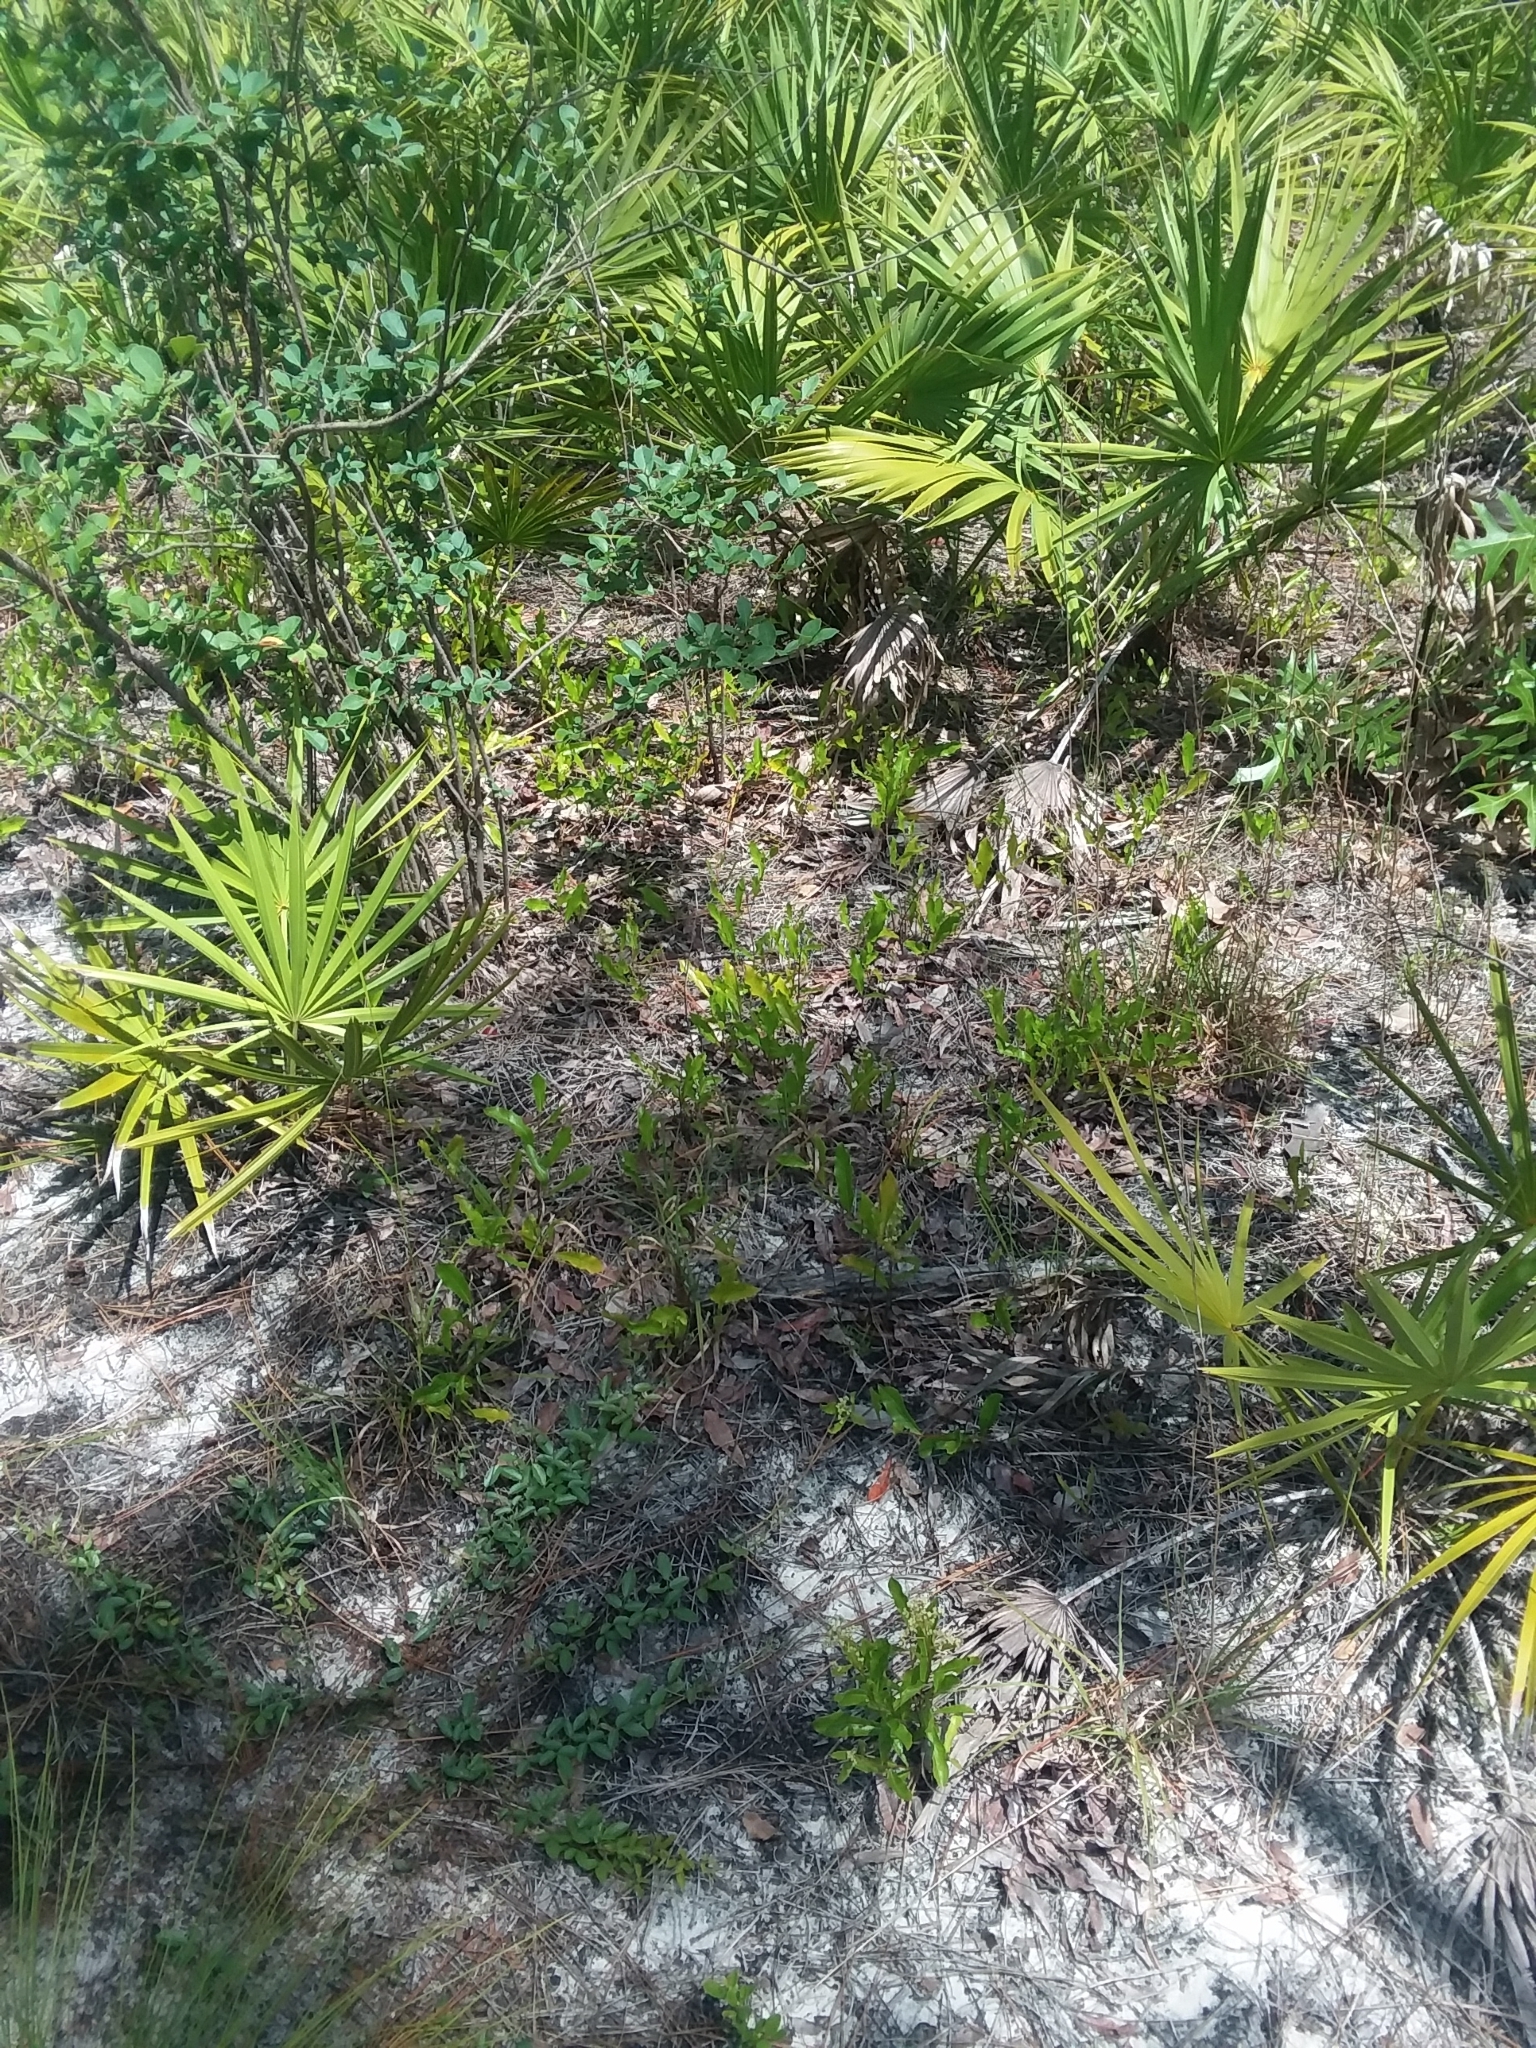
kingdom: Plantae
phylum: Tracheophyta
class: Magnoliopsida
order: Malpighiales
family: Chrysobalanaceae
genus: Geobalanus
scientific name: Geobalanus oblongifolius
